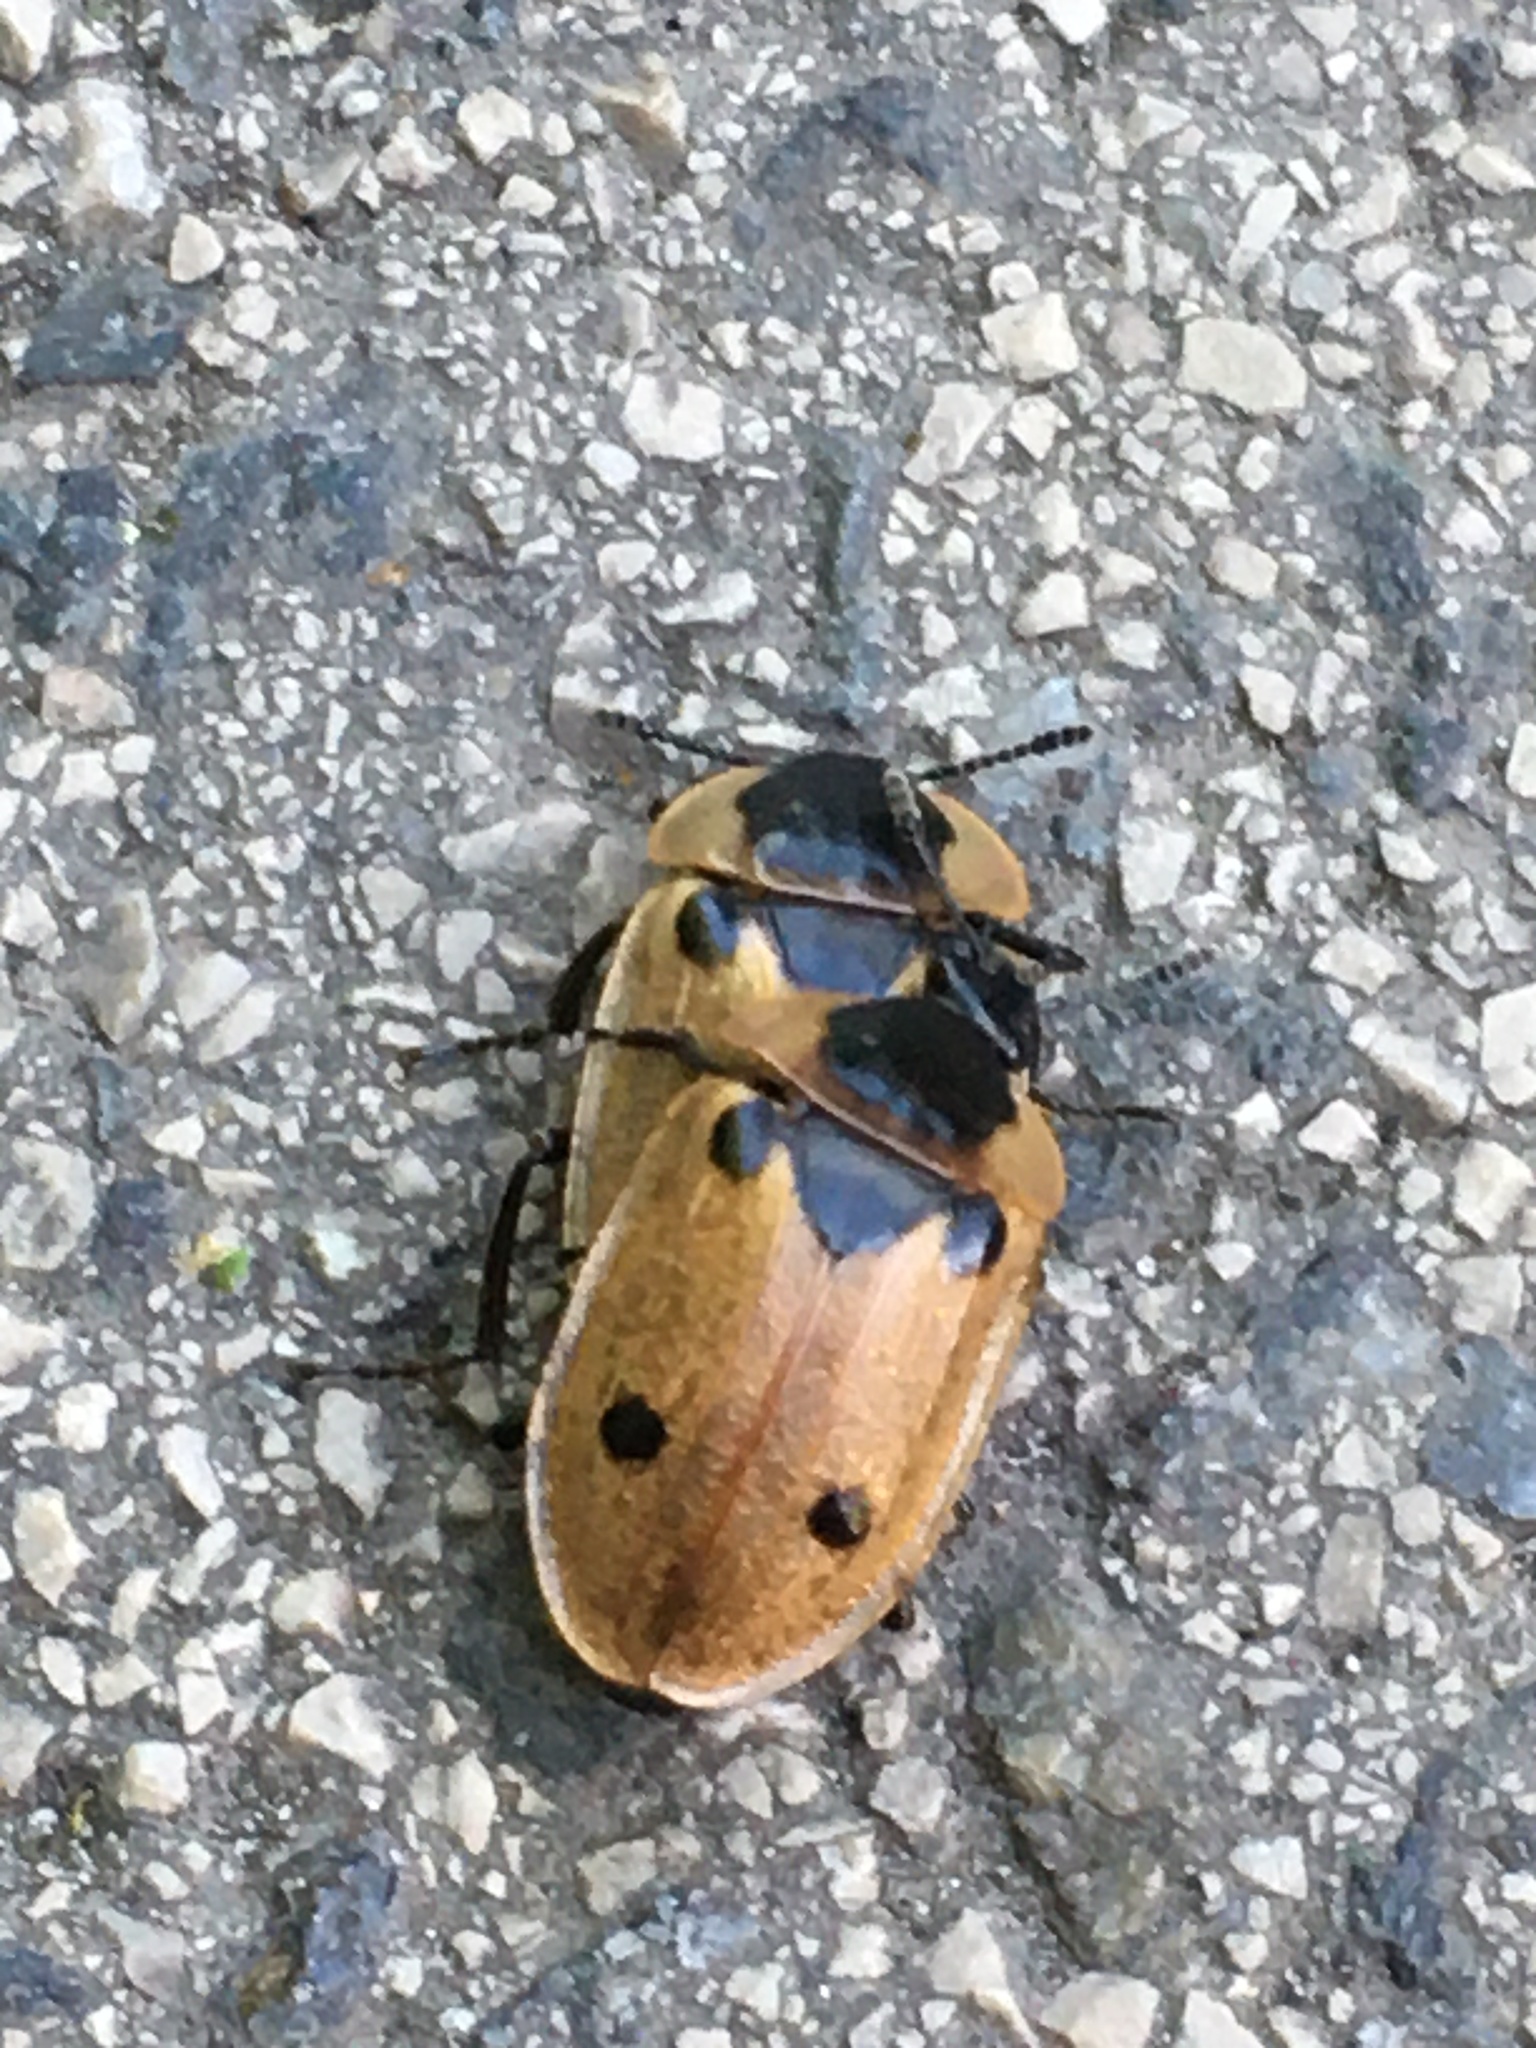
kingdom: Animalia
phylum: Arthropoda
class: Insecta
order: Coleoptera
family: Staphylinidae
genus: Dendroxena
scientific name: Dendroxena quadrimaculata
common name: Carrion beetle
